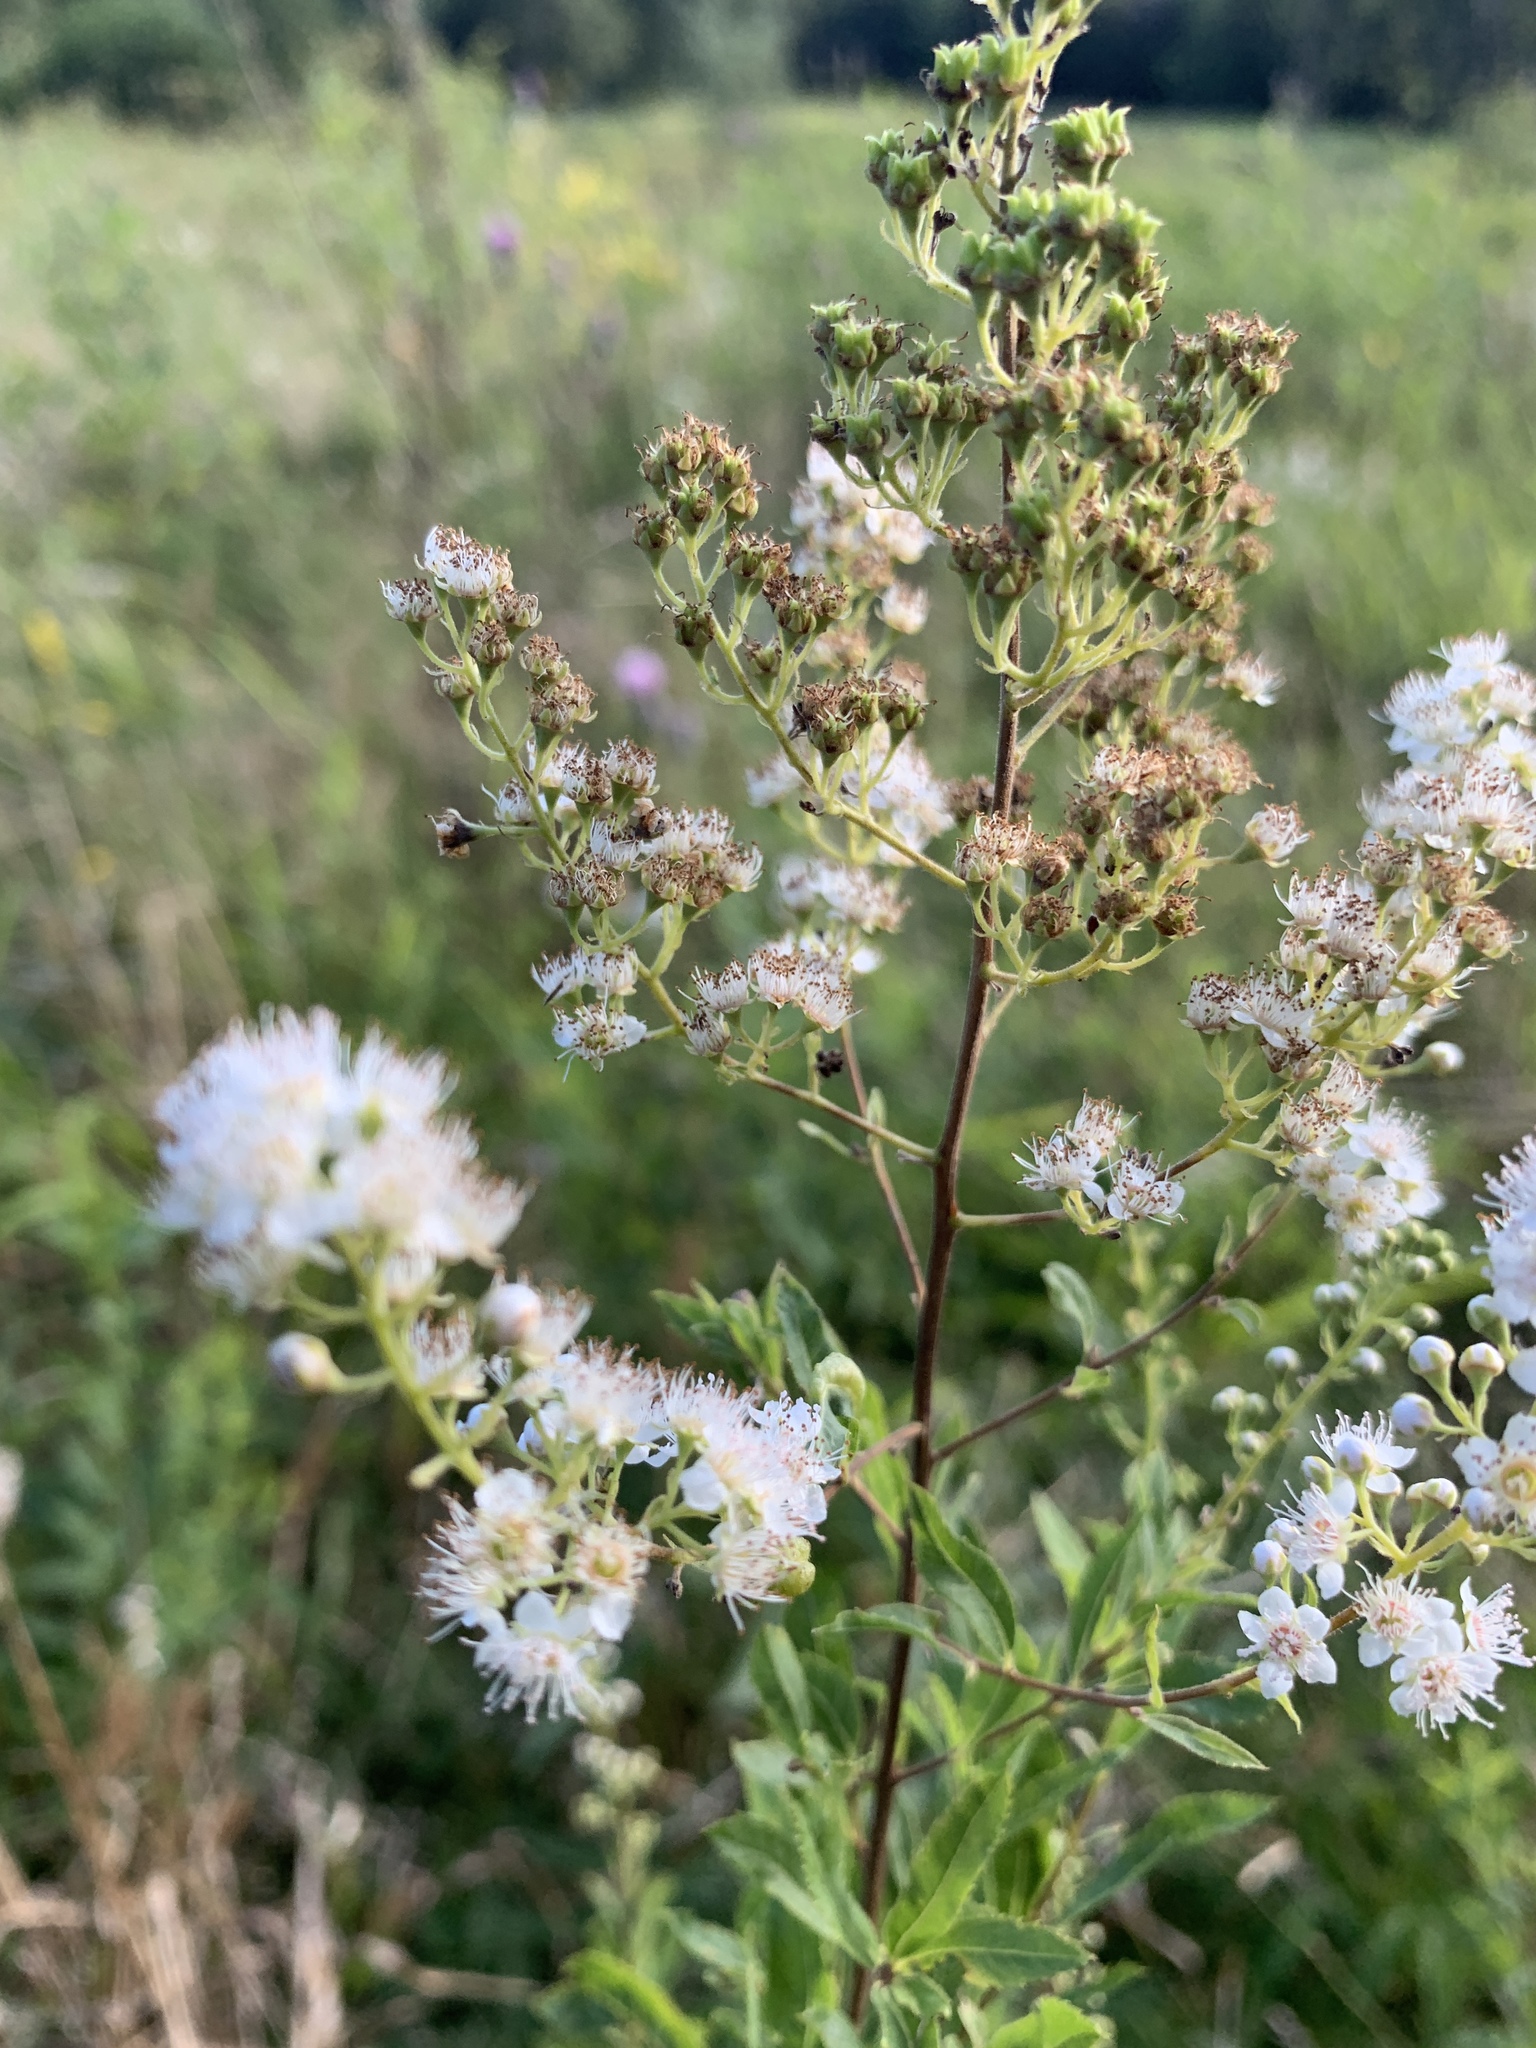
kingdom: Plantae
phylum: Tracheophyta
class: Magnoliopsida
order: Rosales
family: Rosaceae
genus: Spiraea
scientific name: Spiraea alba
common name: Pale bridewort
